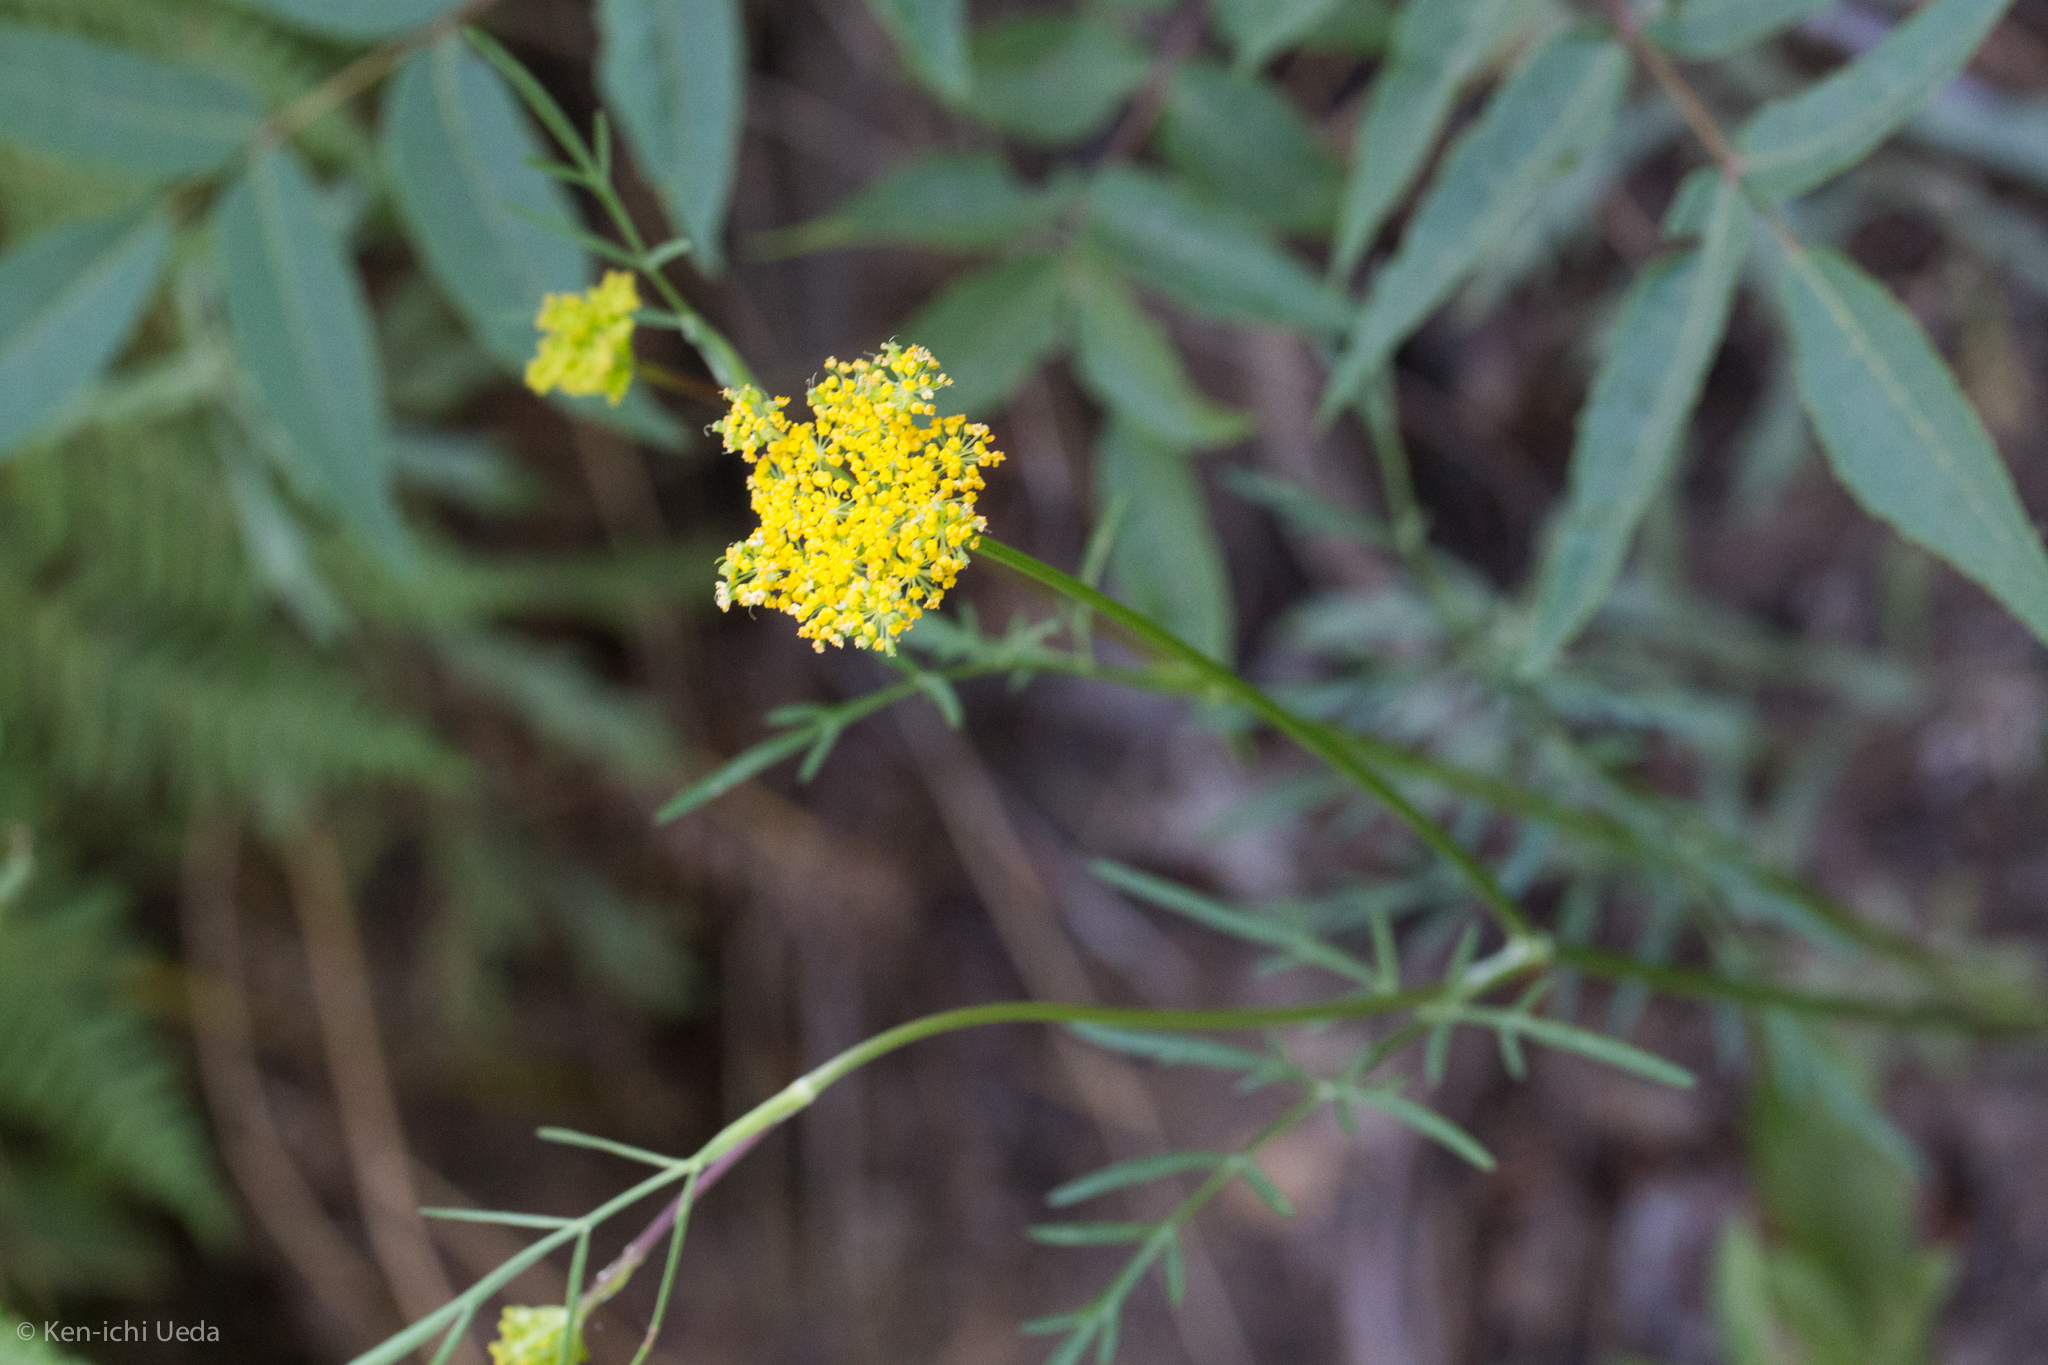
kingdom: Plantae
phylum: Tracheophyta
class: Magnoliopsida
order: Apiales
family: Apiaceae
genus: Cymopterus
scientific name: Cymopterus lemmonii
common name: Lemmon's spring-parsley
